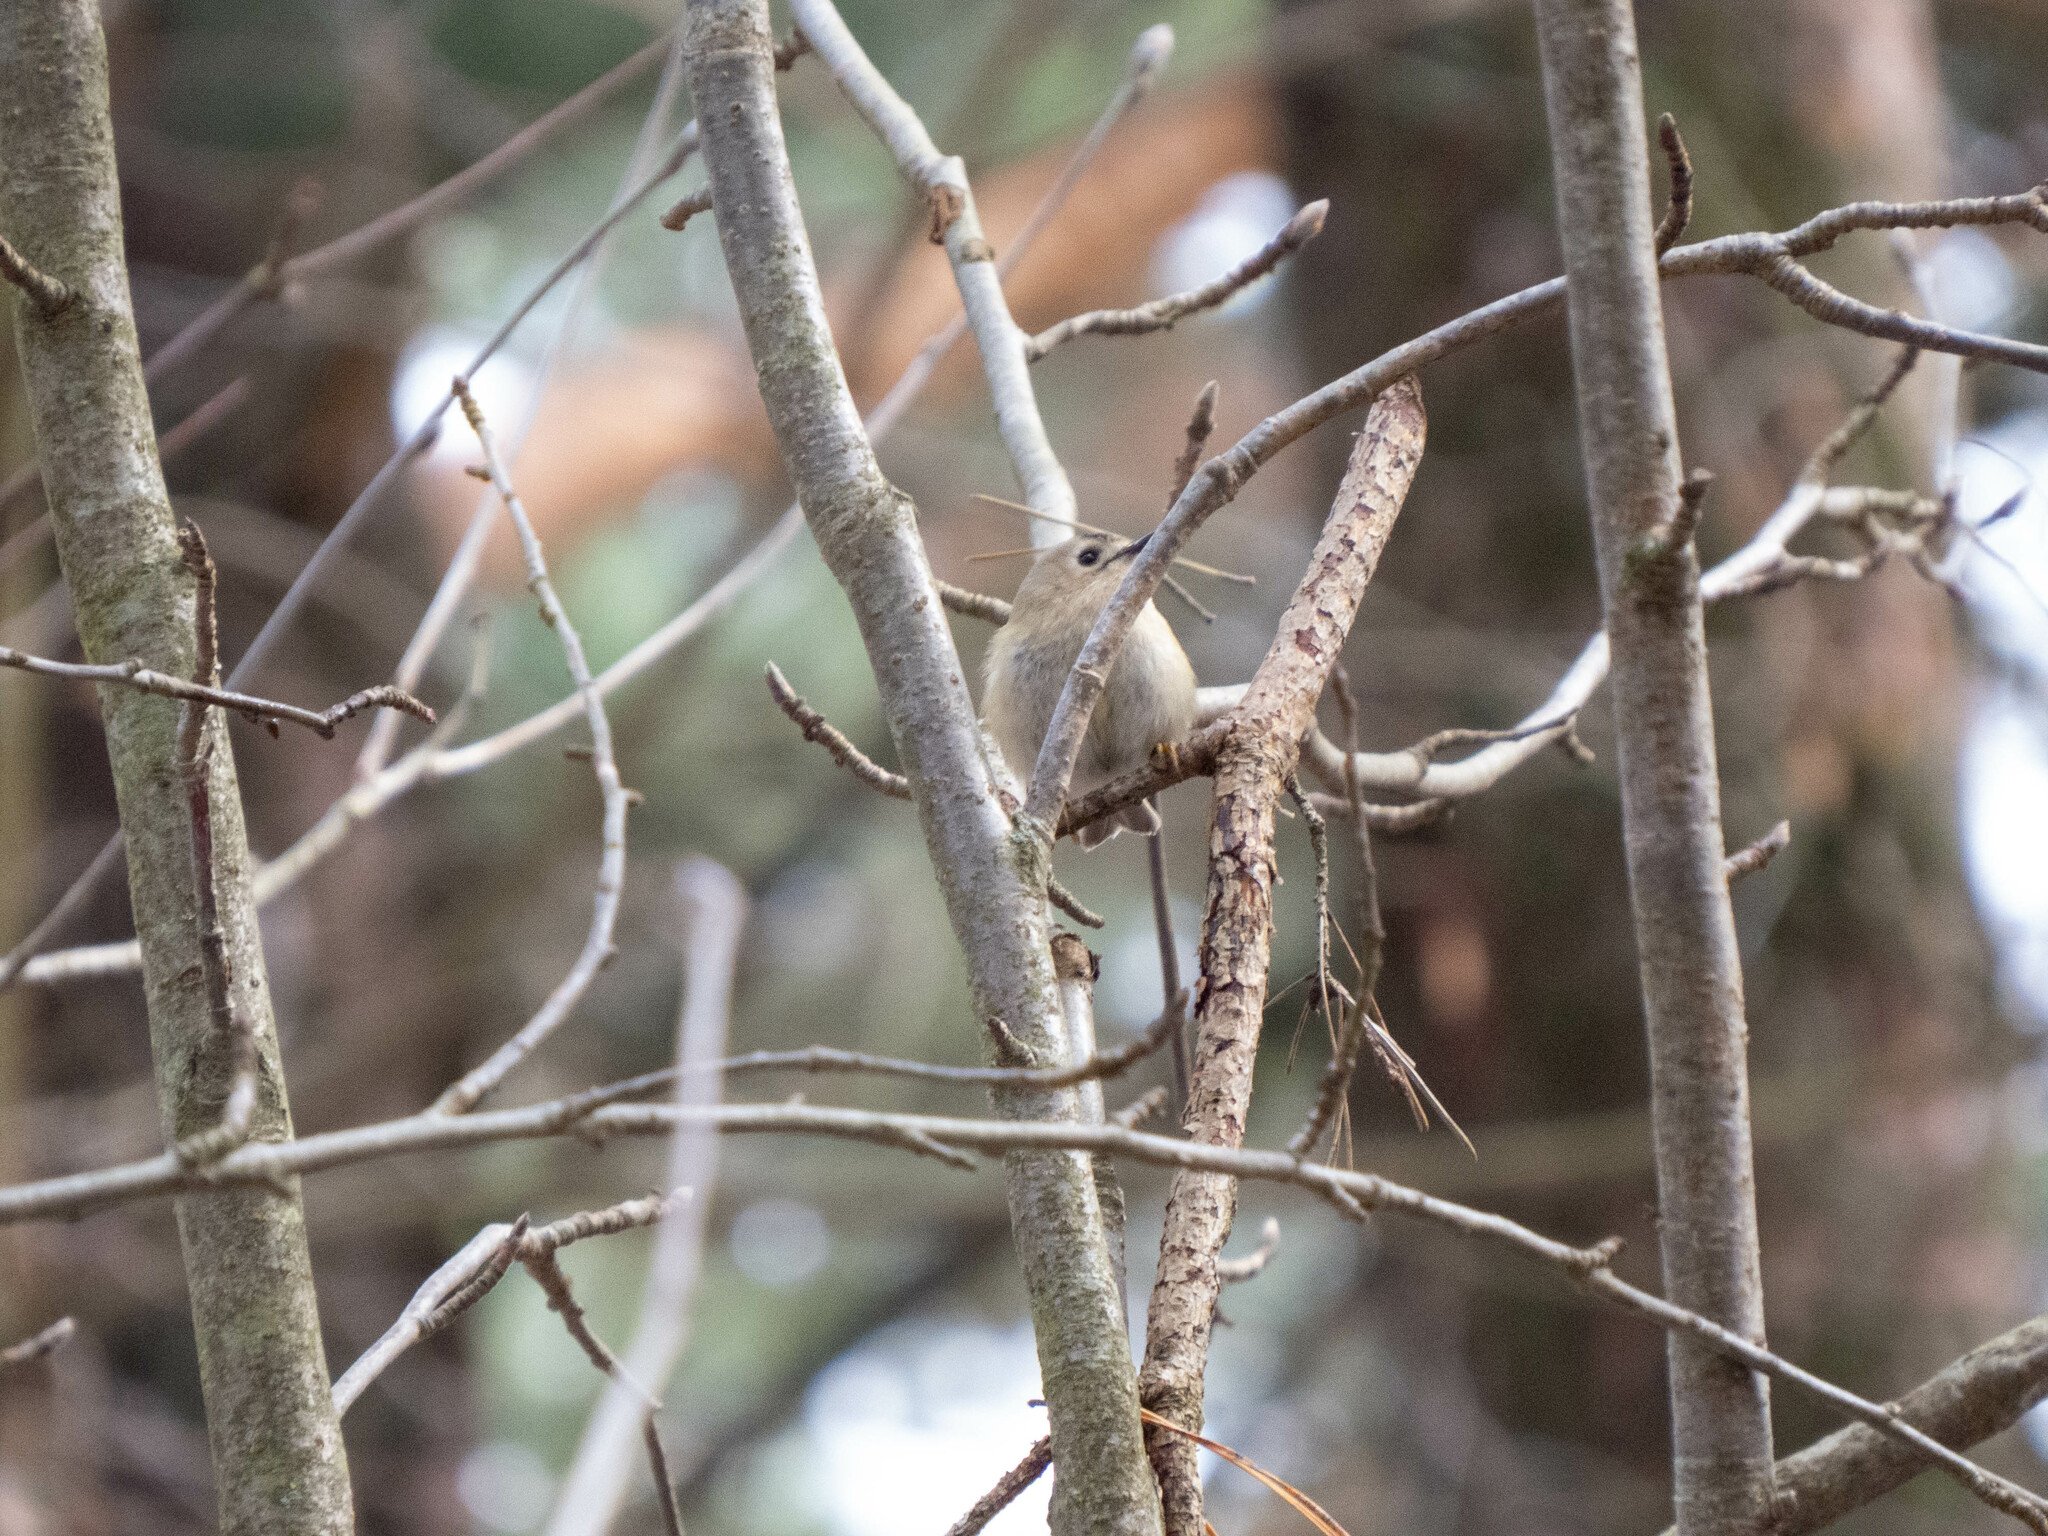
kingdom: Animalia
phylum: Chordata
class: Aves
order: Passeriformes
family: Regulidae
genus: Regulus
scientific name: Regulus regulus
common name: Goldcrest
